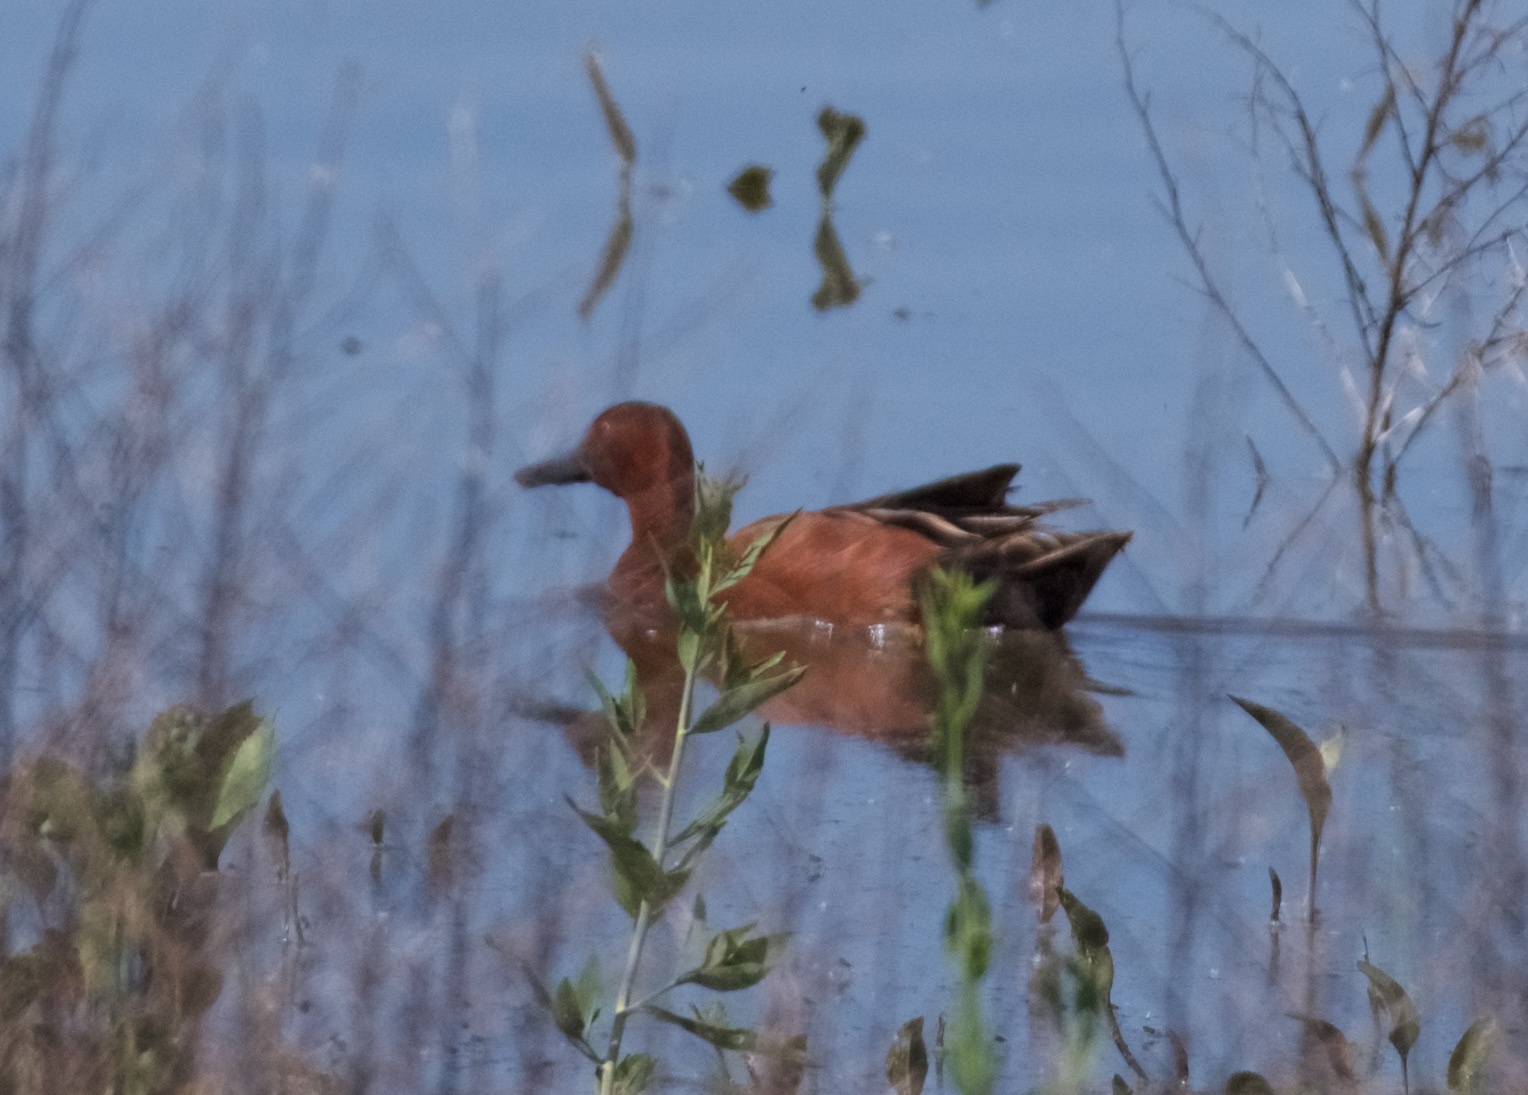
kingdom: Animalia
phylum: Chordata
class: Aves
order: Anseriformes
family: Anatidae
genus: Spatula
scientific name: Spatula cyanoptera
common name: Cinnamon teal
